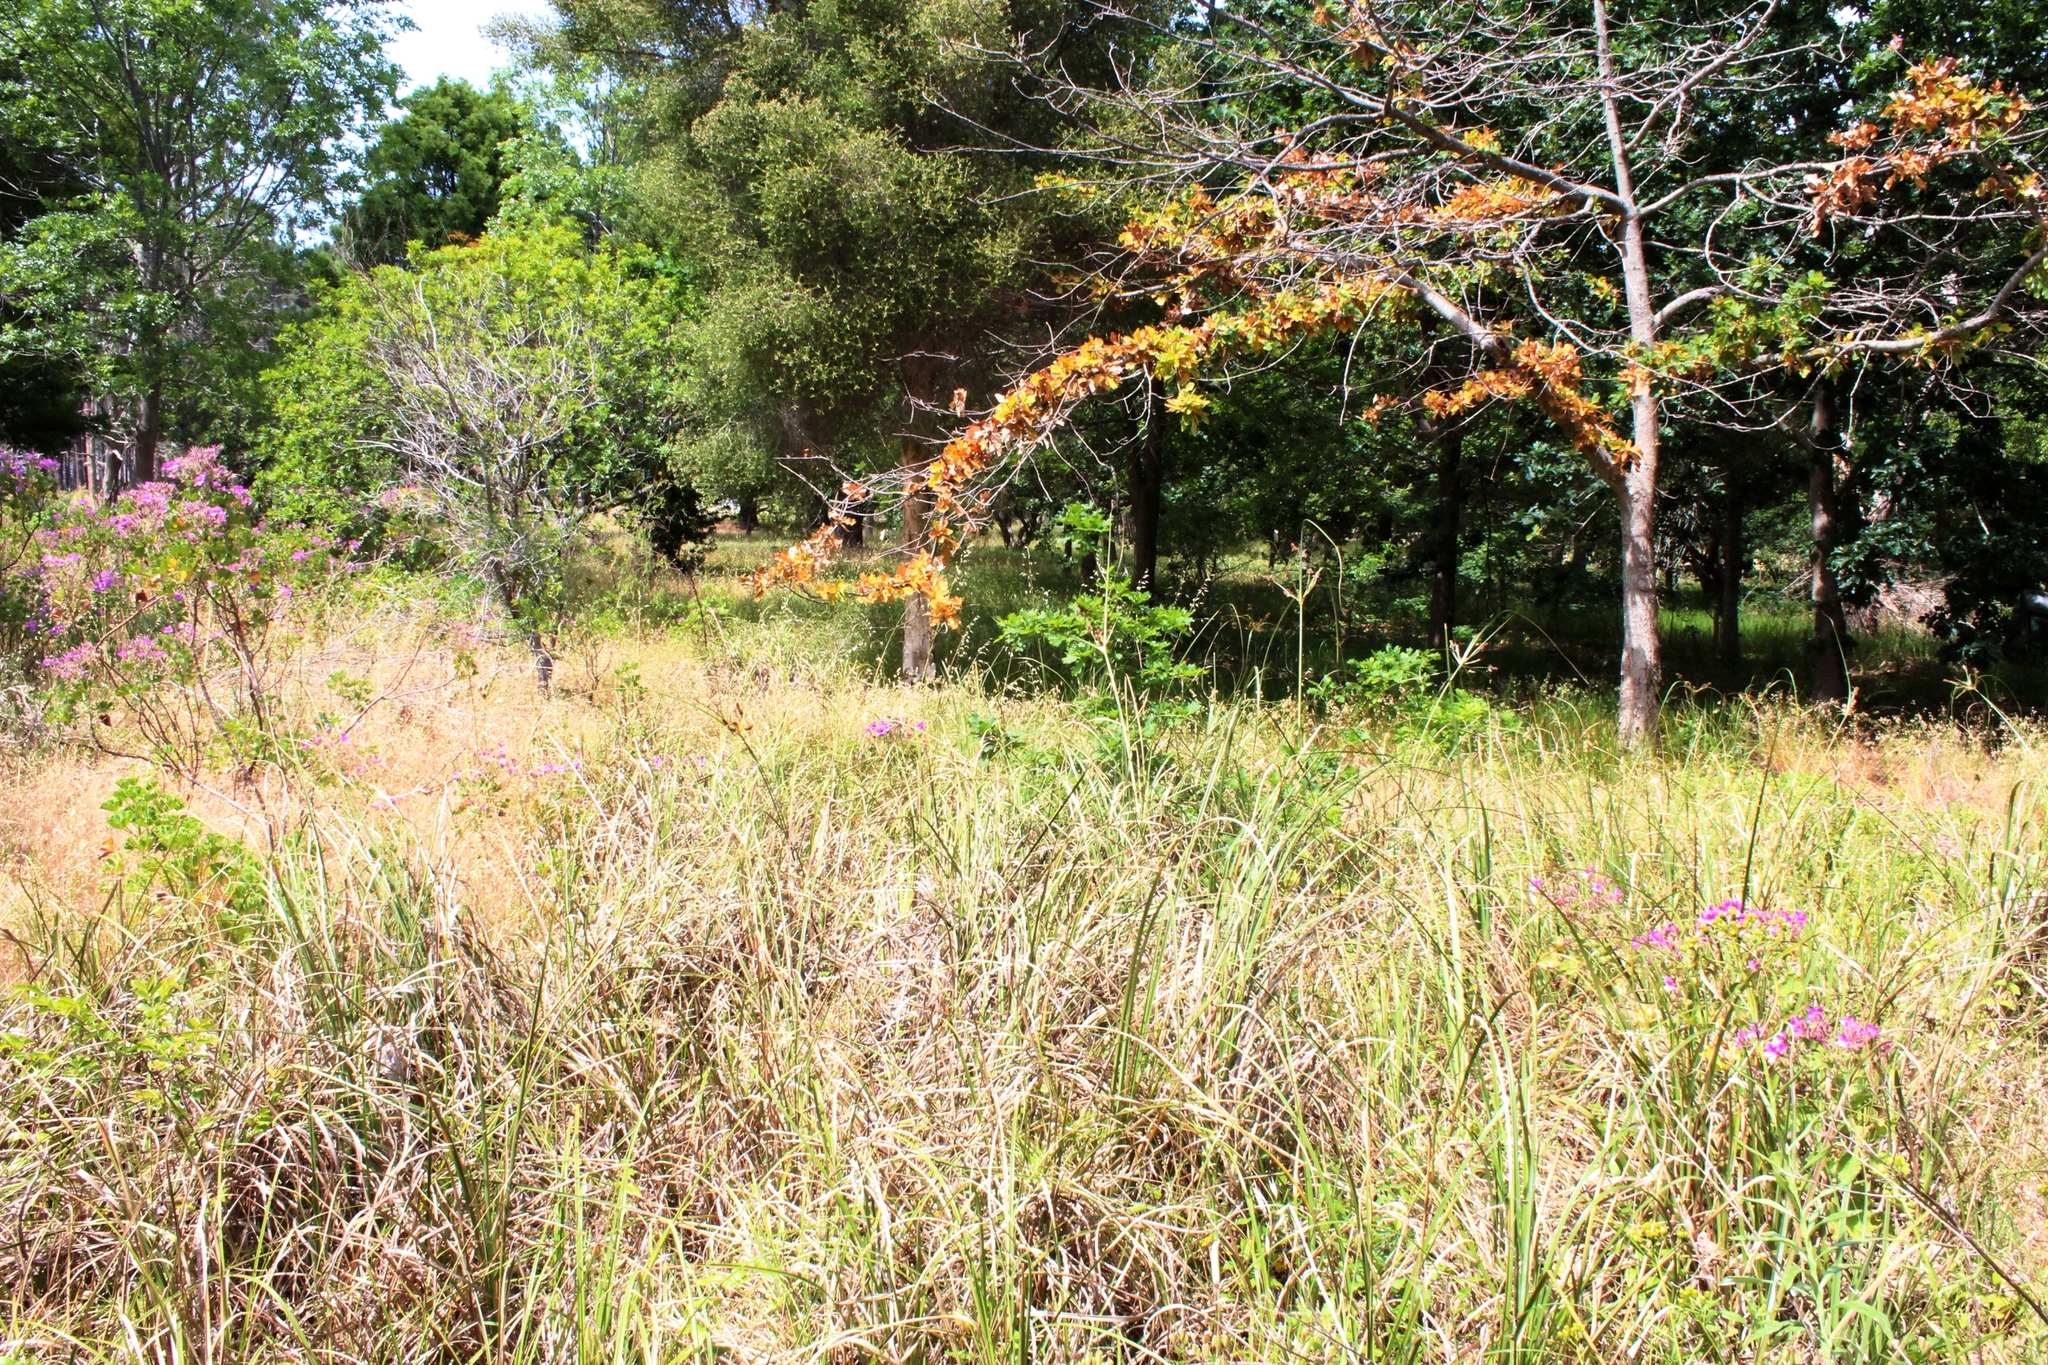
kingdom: Plantae
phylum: Tracheophyta
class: Liliopsida
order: Poales
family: Cyperaceae
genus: Cyperus
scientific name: Cyperus thunbergii
